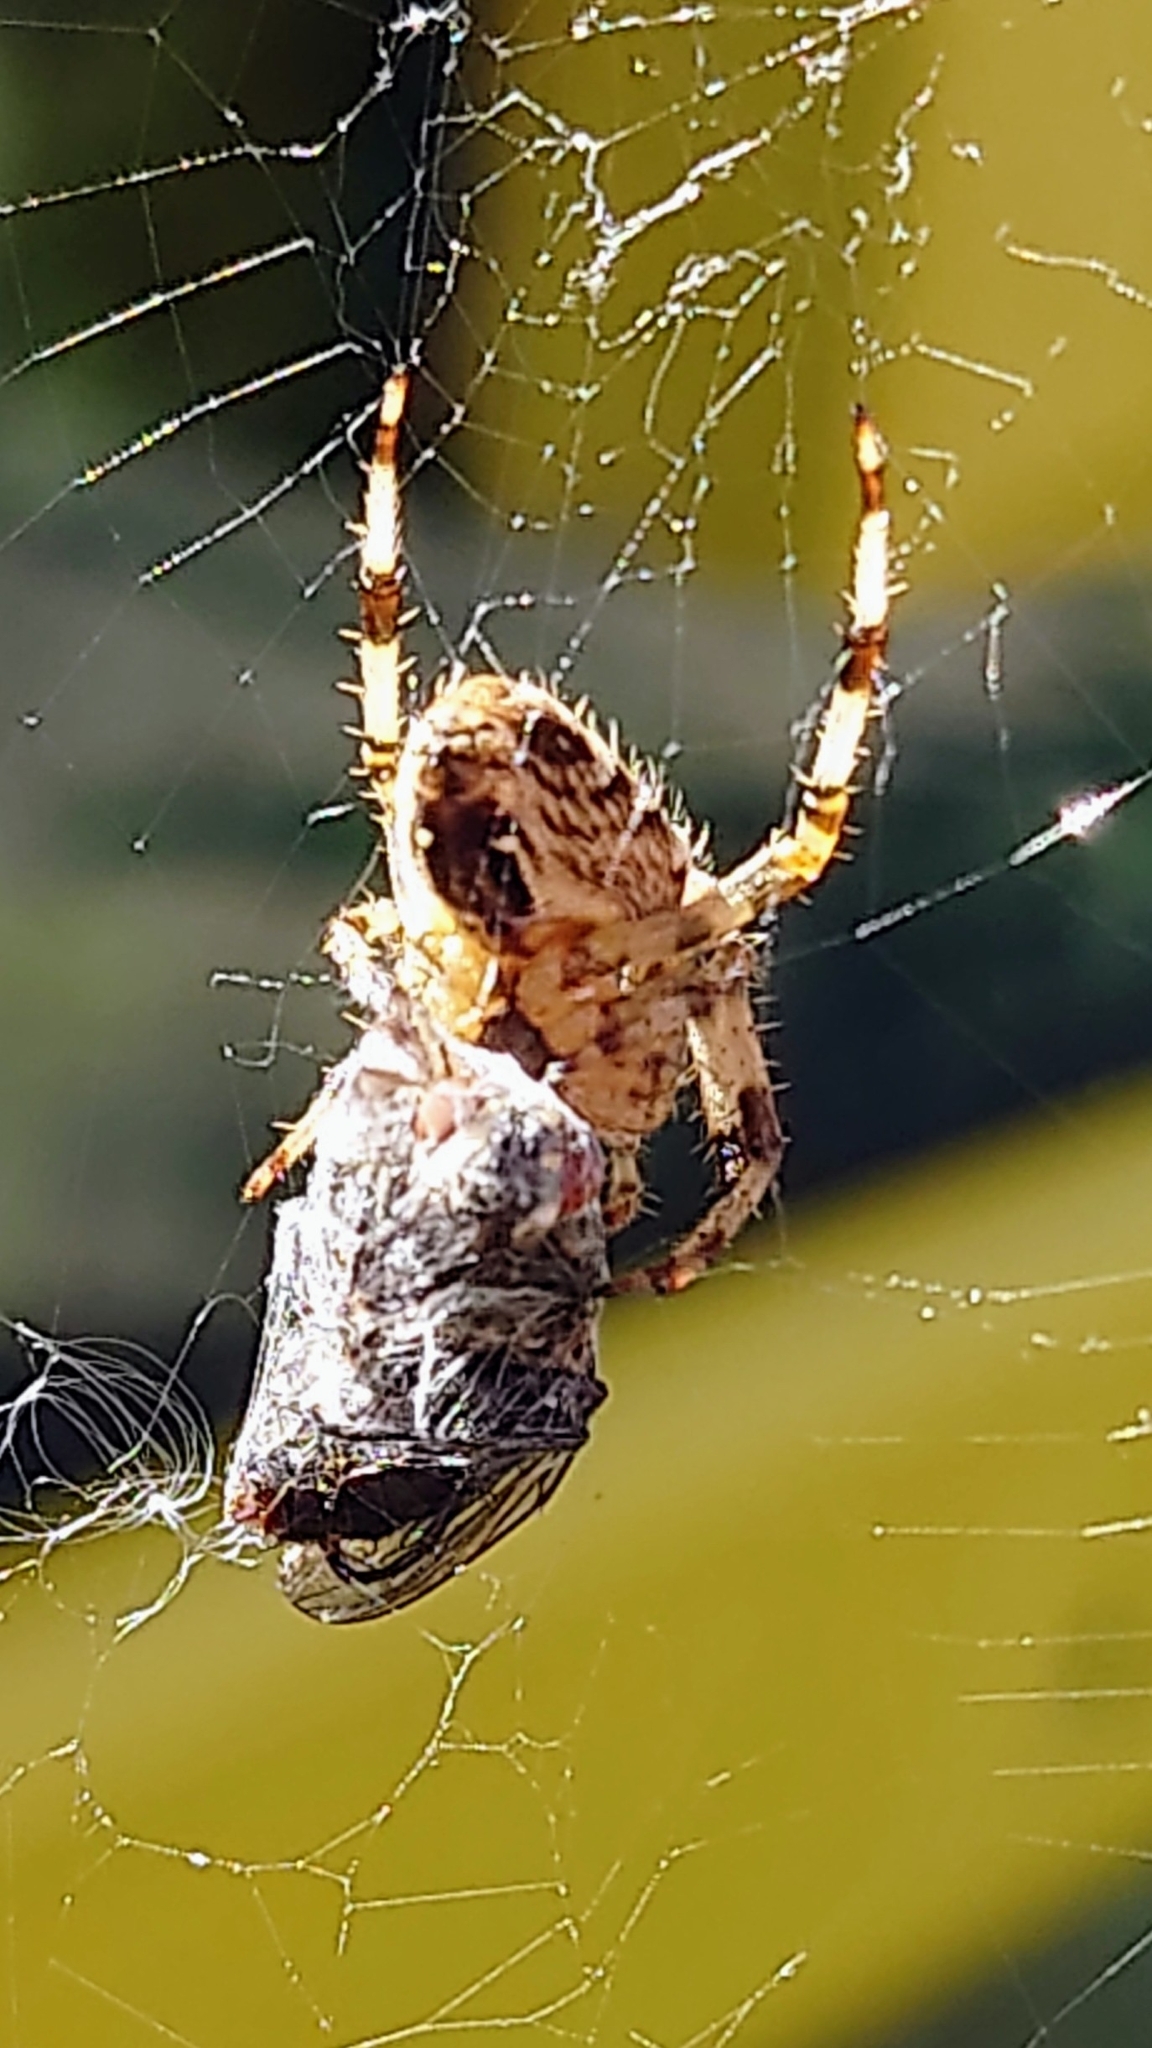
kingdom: Animalia
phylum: Arthropoda
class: Arachnida
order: Araneae
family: Araneidae
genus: Araneus
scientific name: Araneus diadematus
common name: Cross orbweaver
